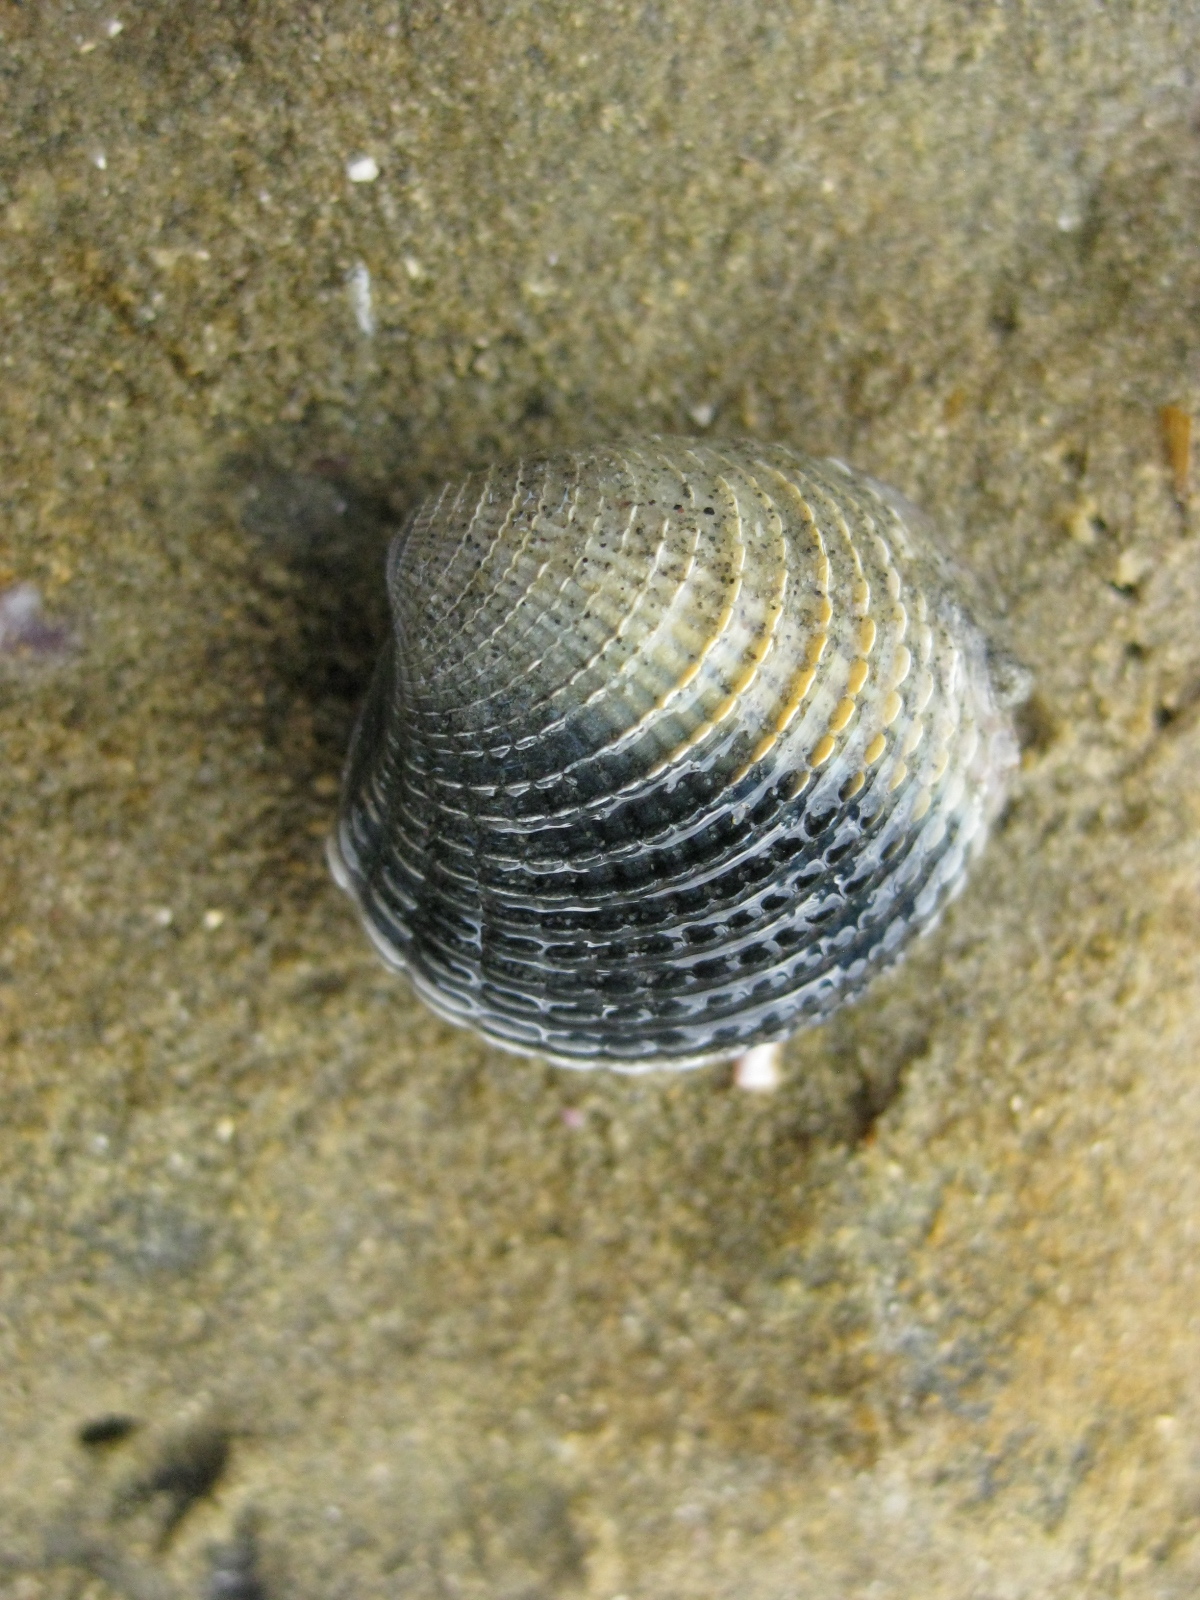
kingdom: Animalia
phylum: Mollusca
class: Bivalvia
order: Venerida
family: Veneridae
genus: Austrovenus
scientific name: Austrovenus stutchburyi
